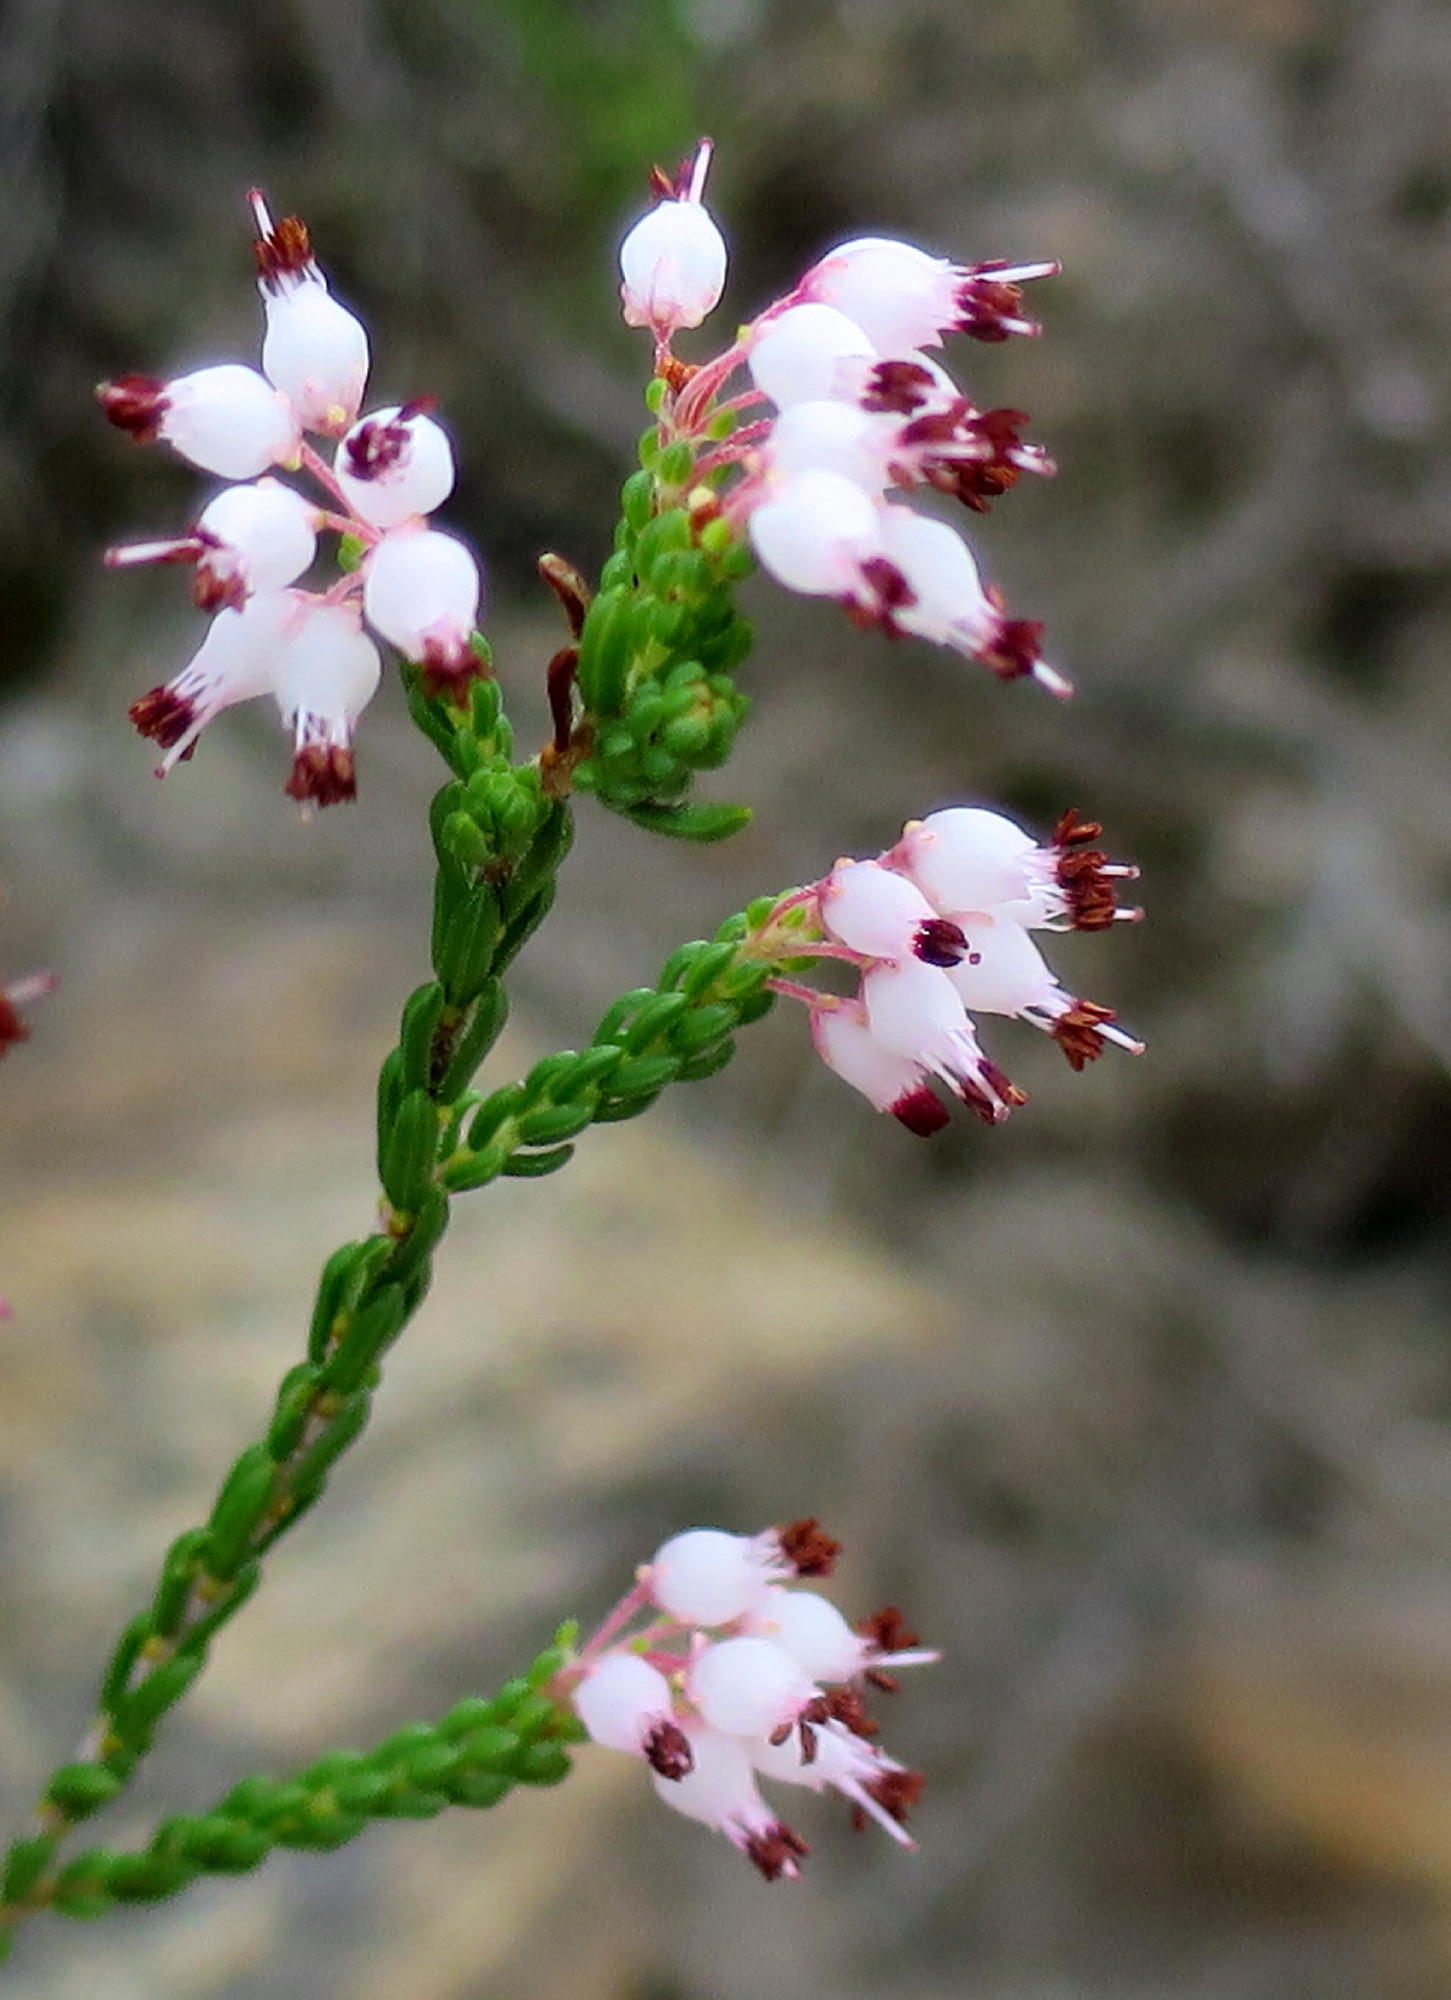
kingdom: Plantae
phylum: Tracheophyta
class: Magnoliopsida
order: Ericales
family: Ericaceae
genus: Erica
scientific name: Erica demissa
